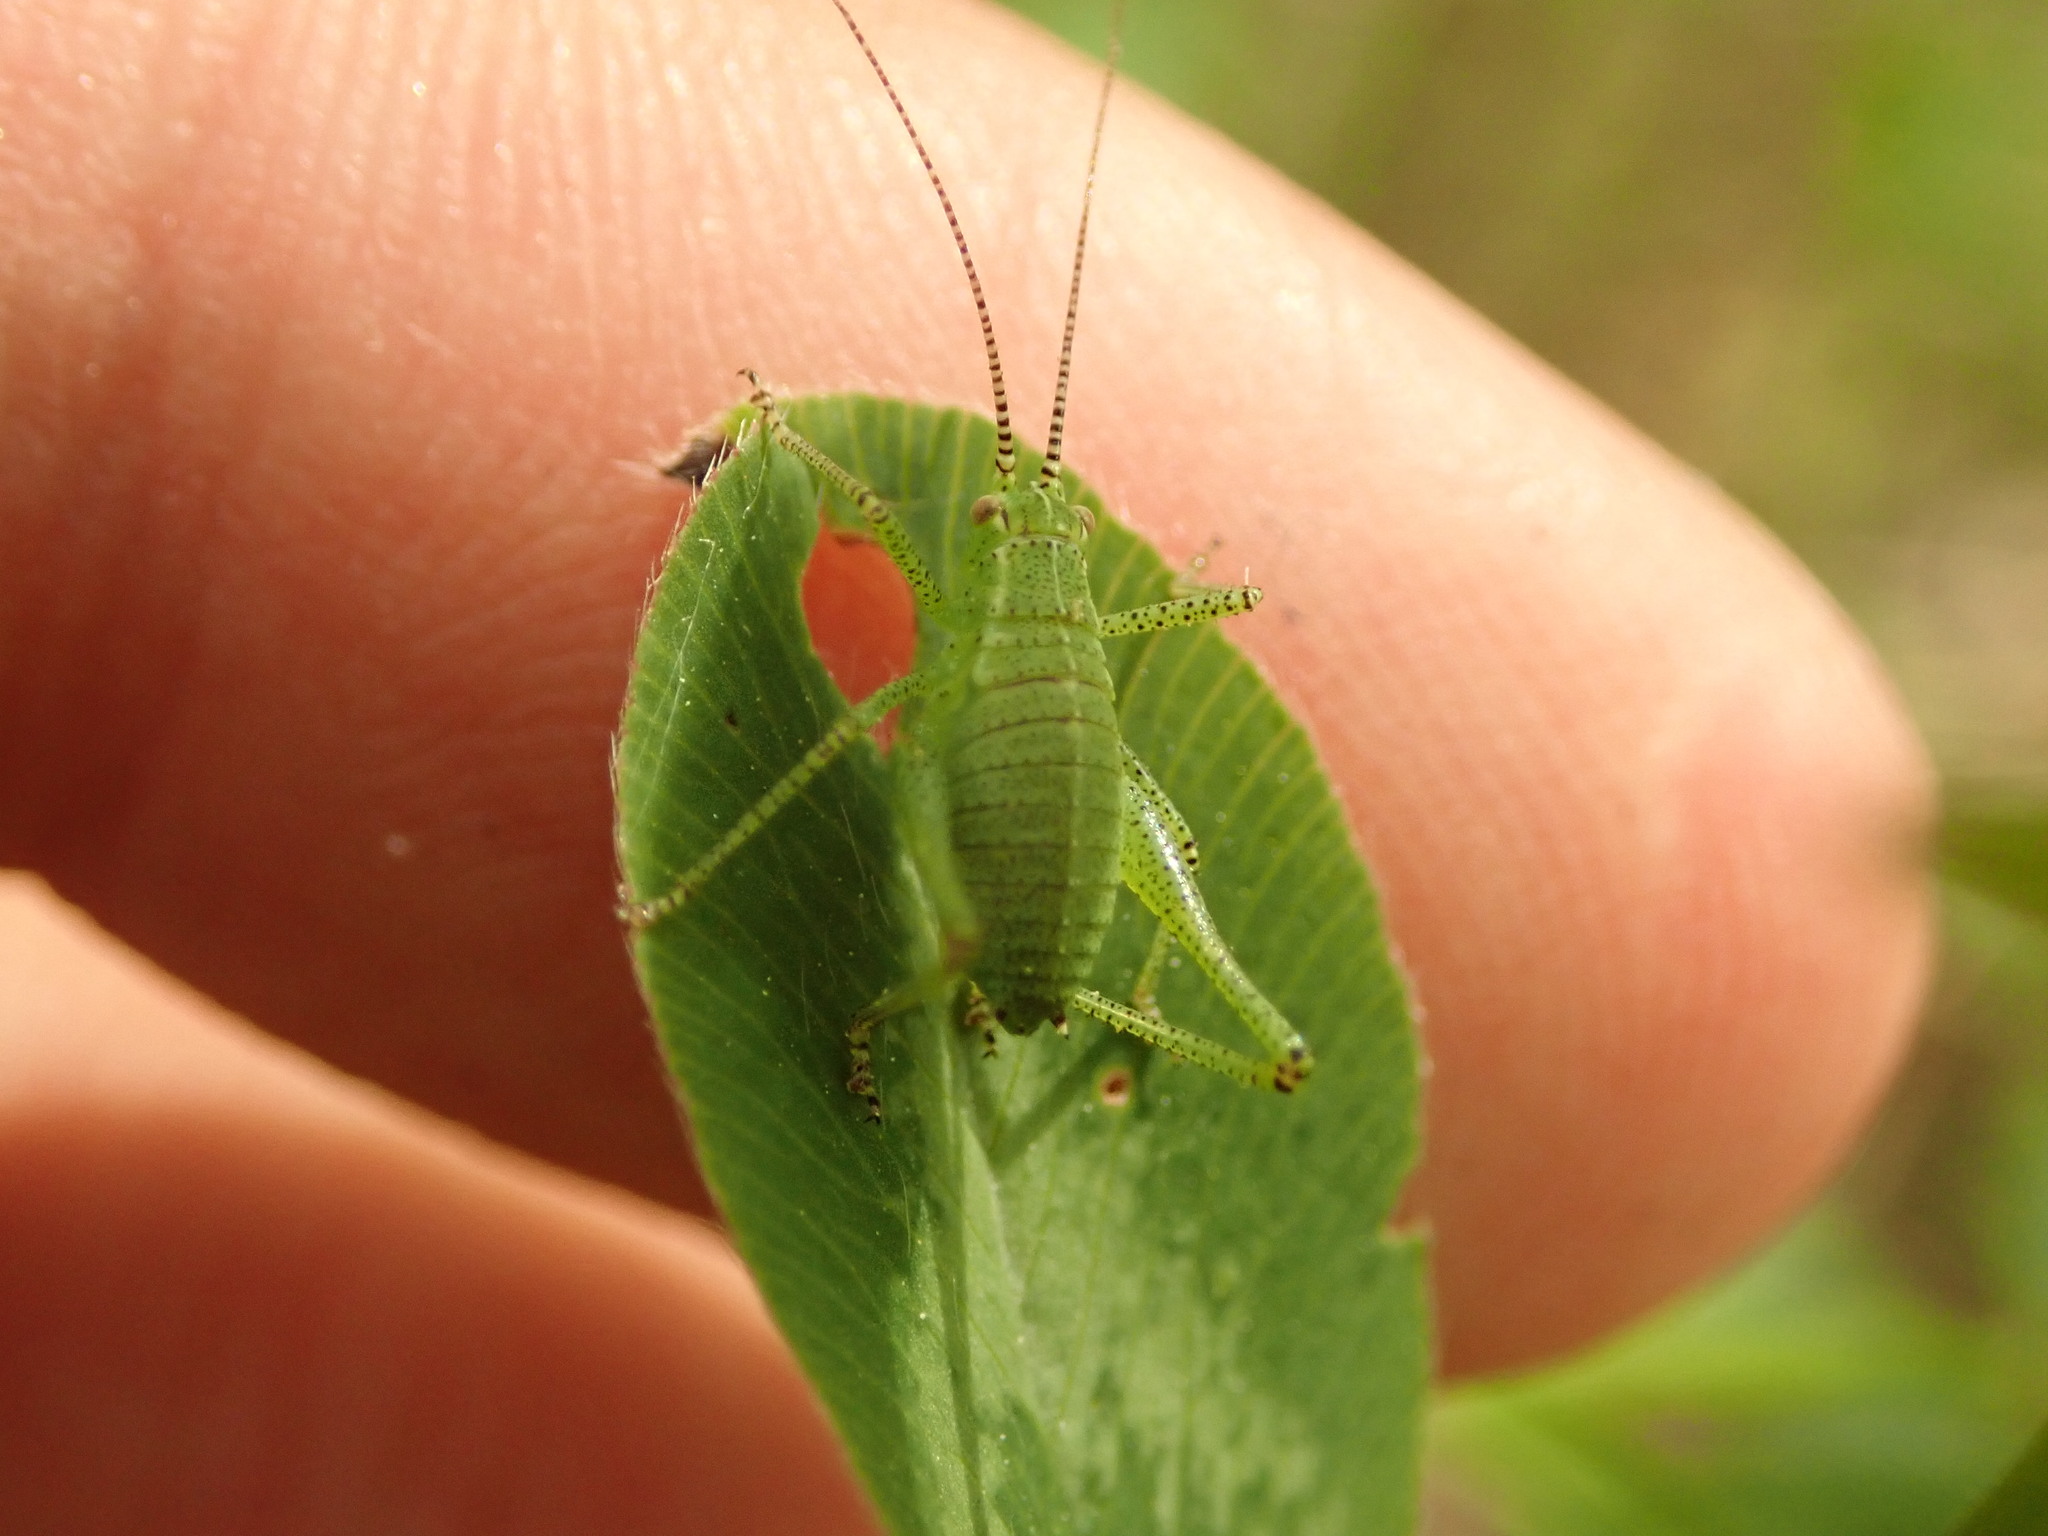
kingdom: Animalia
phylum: Arthropoda
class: Insecta
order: Orthoptera
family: Tettigoniidae
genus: Leptophyes
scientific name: Leptophyes punctatissima
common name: Speckled bush-cricket
